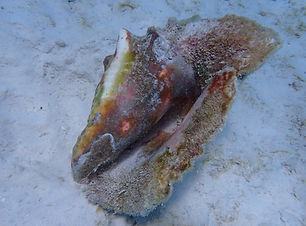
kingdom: Animalia
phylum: Mollusca
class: Gastropoda
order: Littorinimorpha
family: Strombidae
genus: Aliger
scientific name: Aliger gigas
